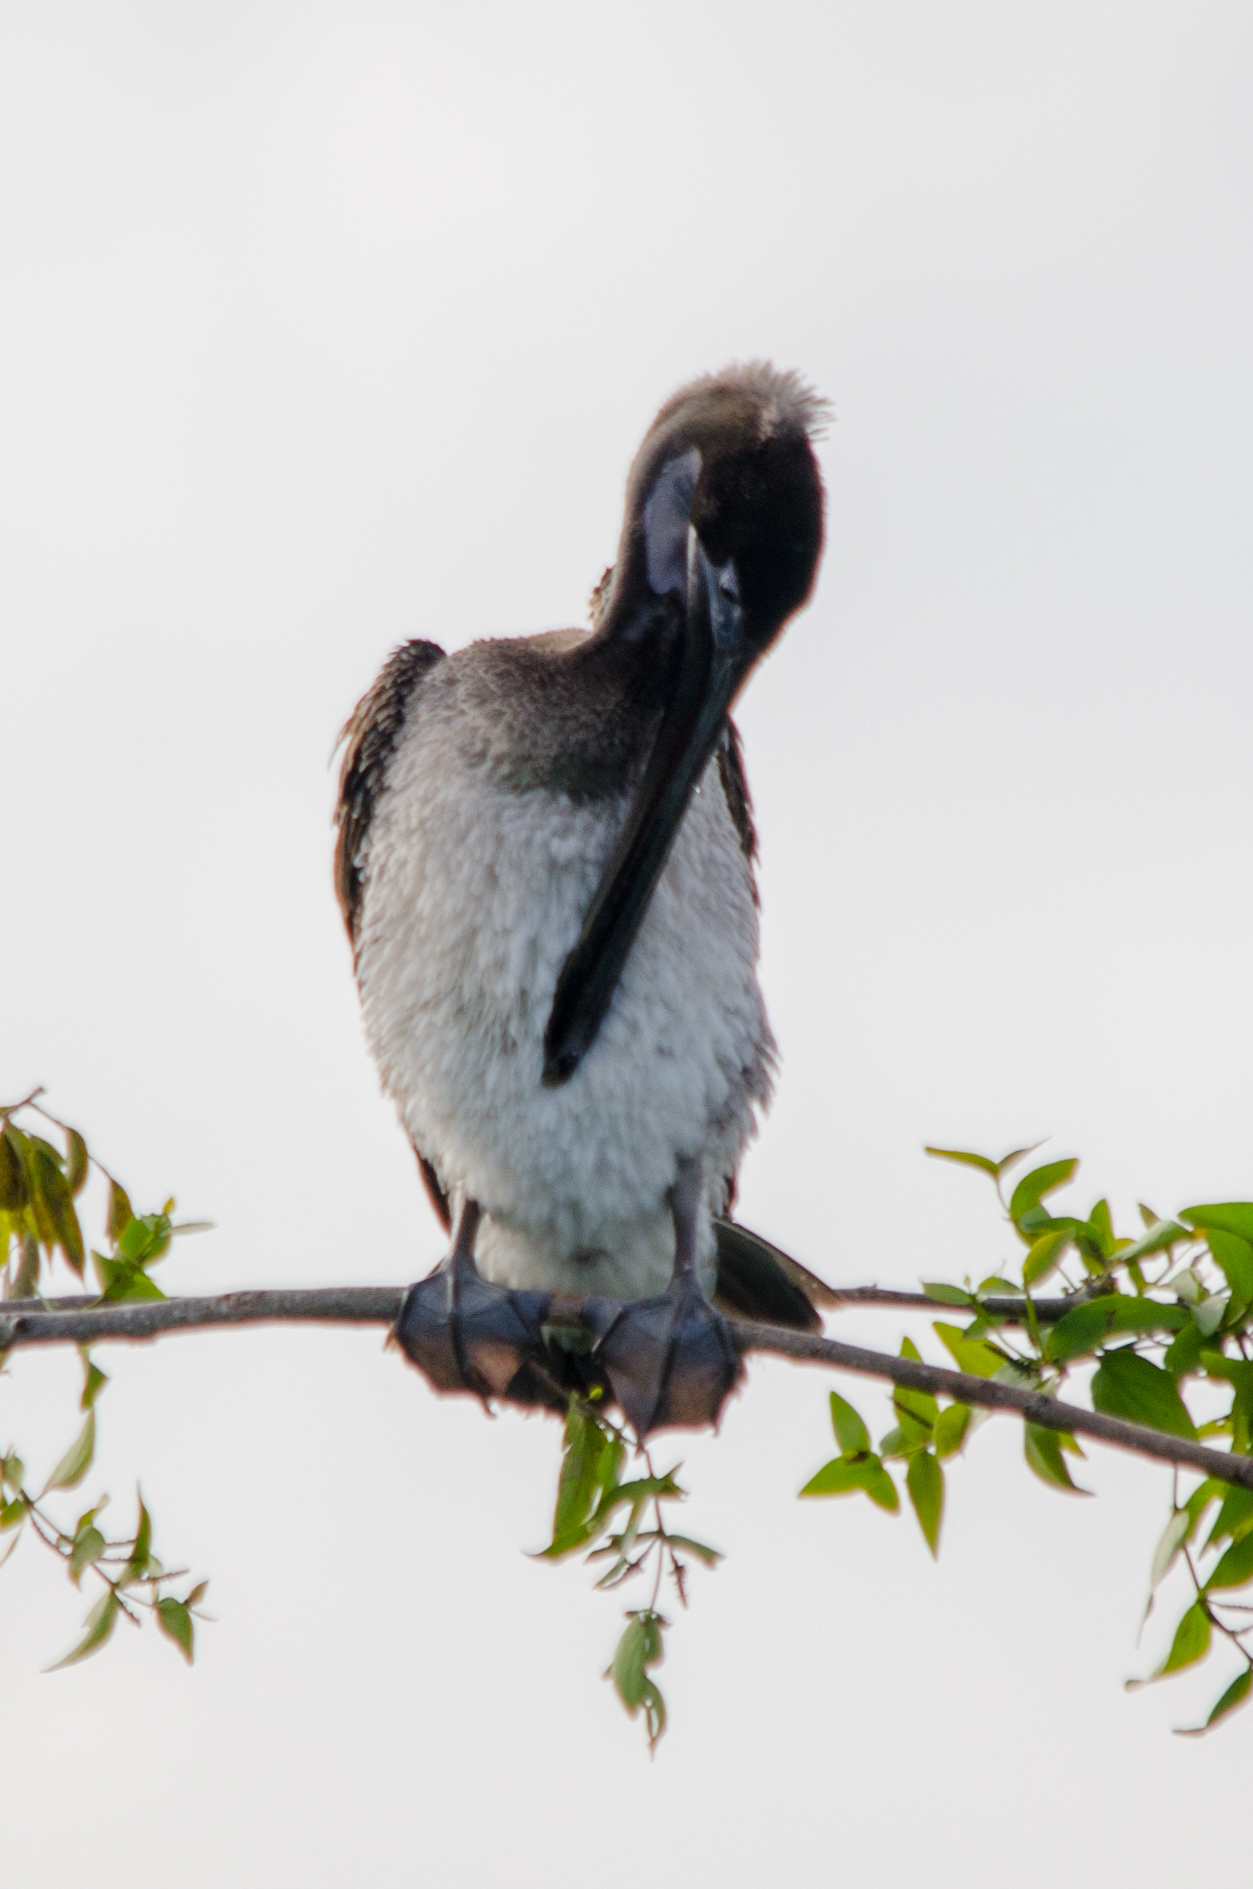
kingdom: Animalia
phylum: Chordata
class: Aves
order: Pelecaniformes
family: Pelecanidae
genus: Pelecanus
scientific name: Pelecanus occidentalis
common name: Brown pelican
